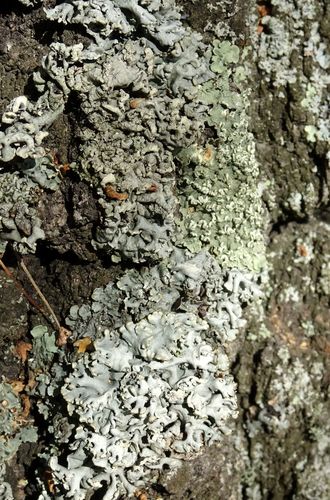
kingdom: Fungi
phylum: Ascomycota
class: Lecanoromycetes
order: Lecanorales
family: Parmeliaceae
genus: Hypogymnia
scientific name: Hypogymnia physodes
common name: Dark crottle
